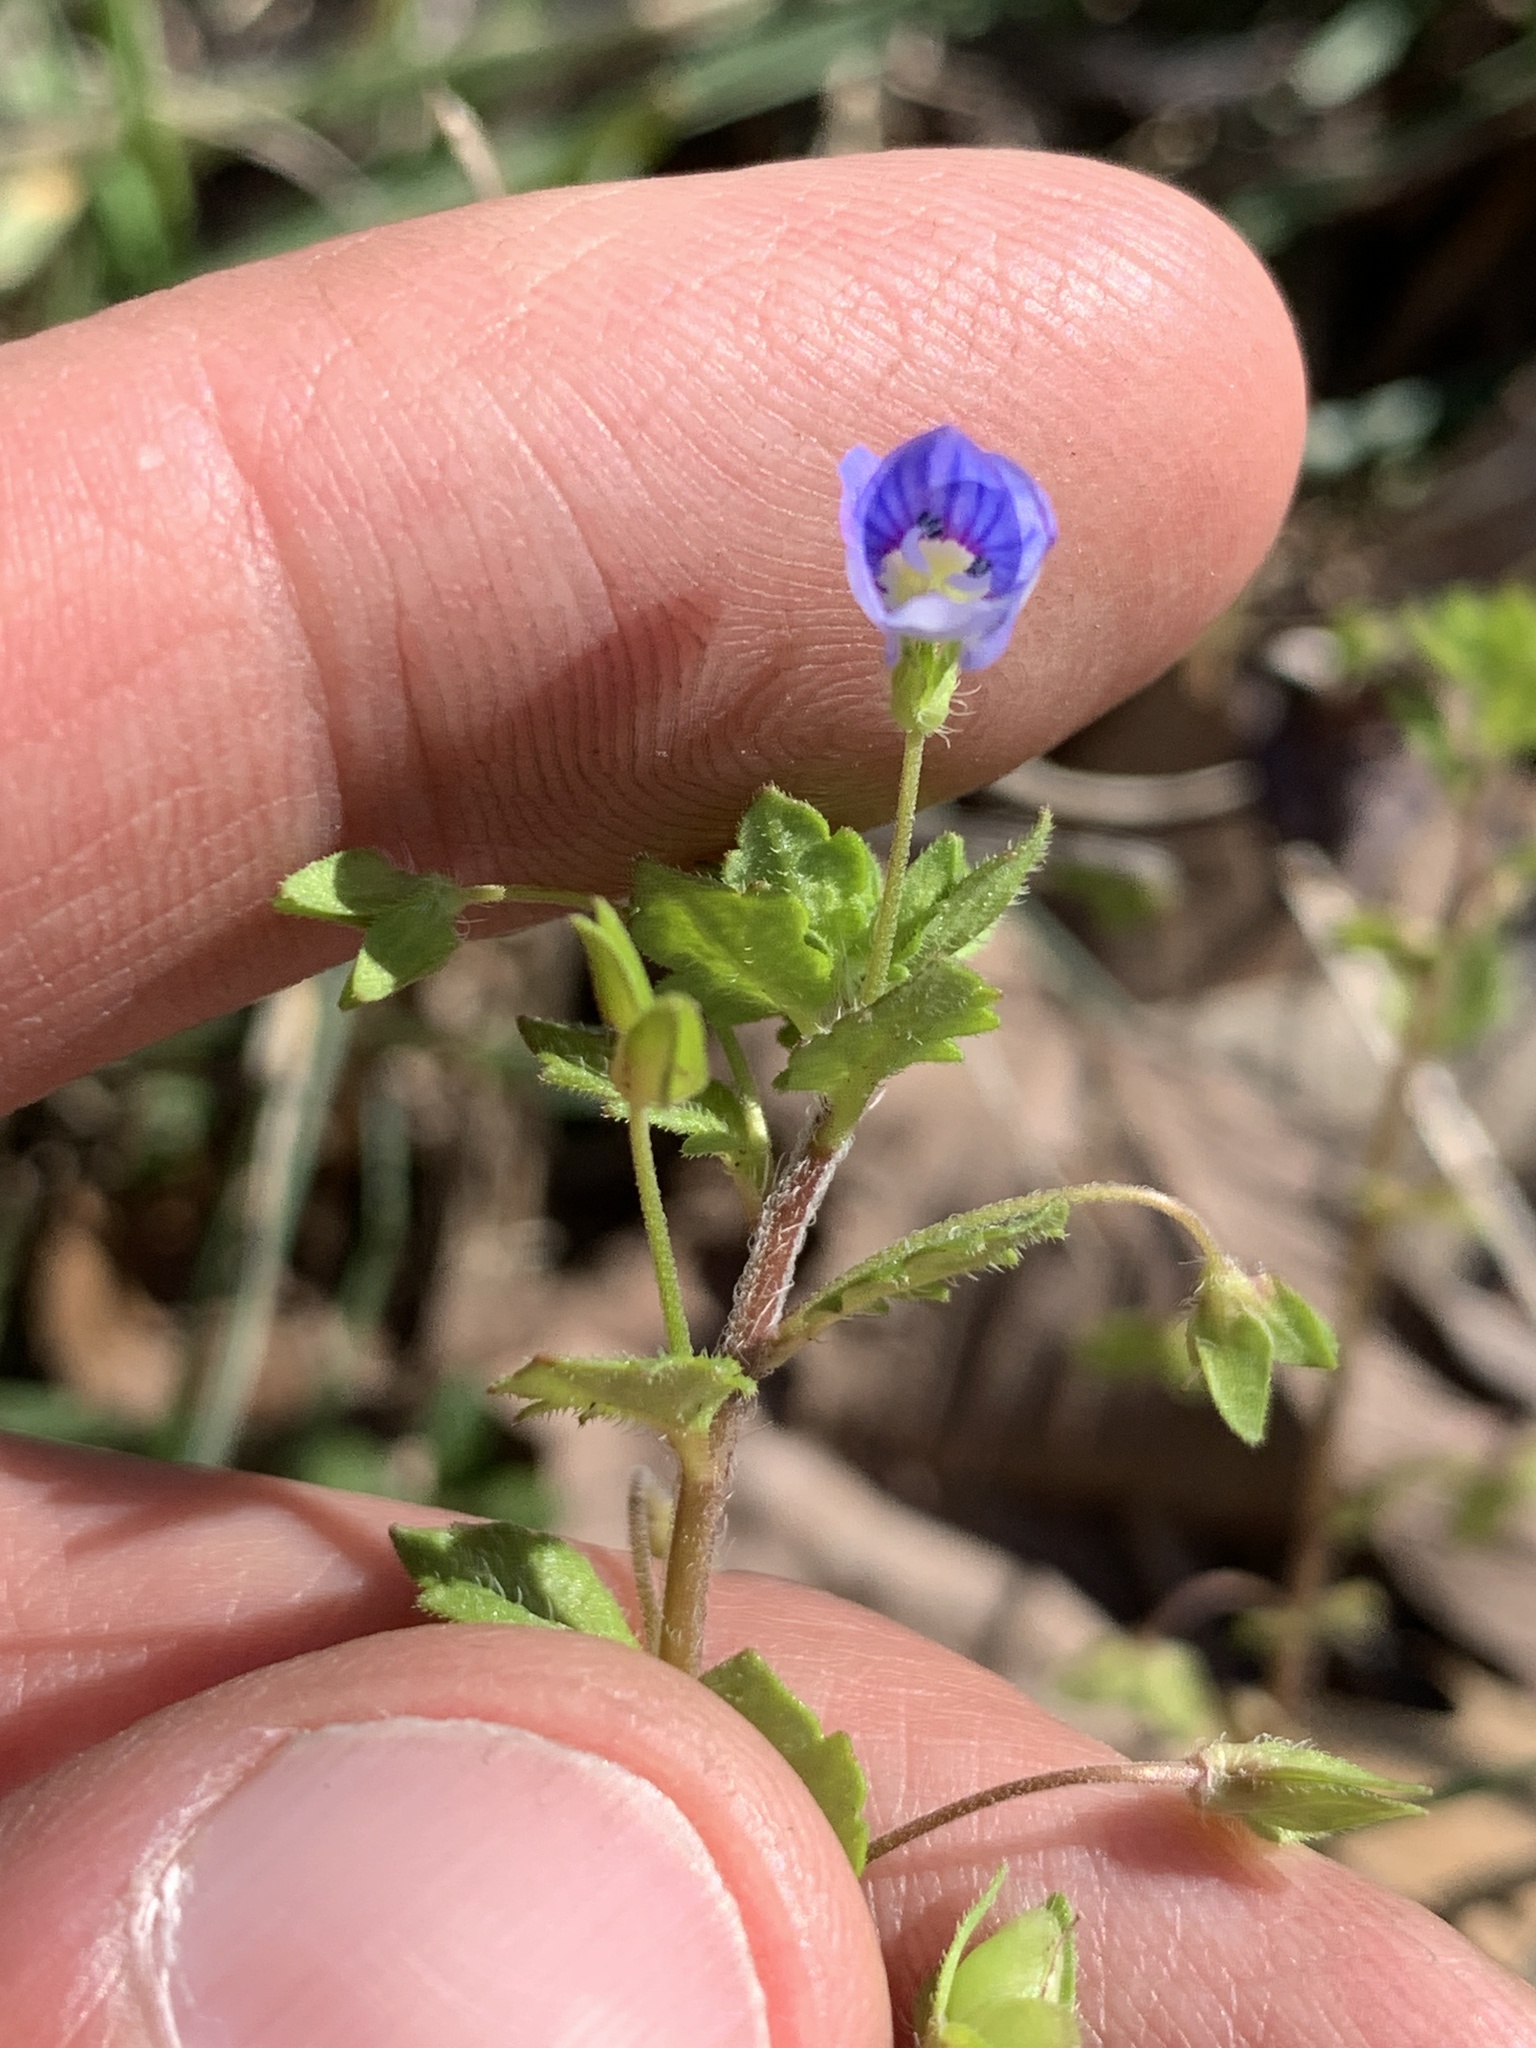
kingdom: Plantae
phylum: Tracheophyta
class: Magnoliopsida
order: Lamiales
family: Plantaginaceae
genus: Veronica
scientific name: Veronica persica
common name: Common field-speedwell
